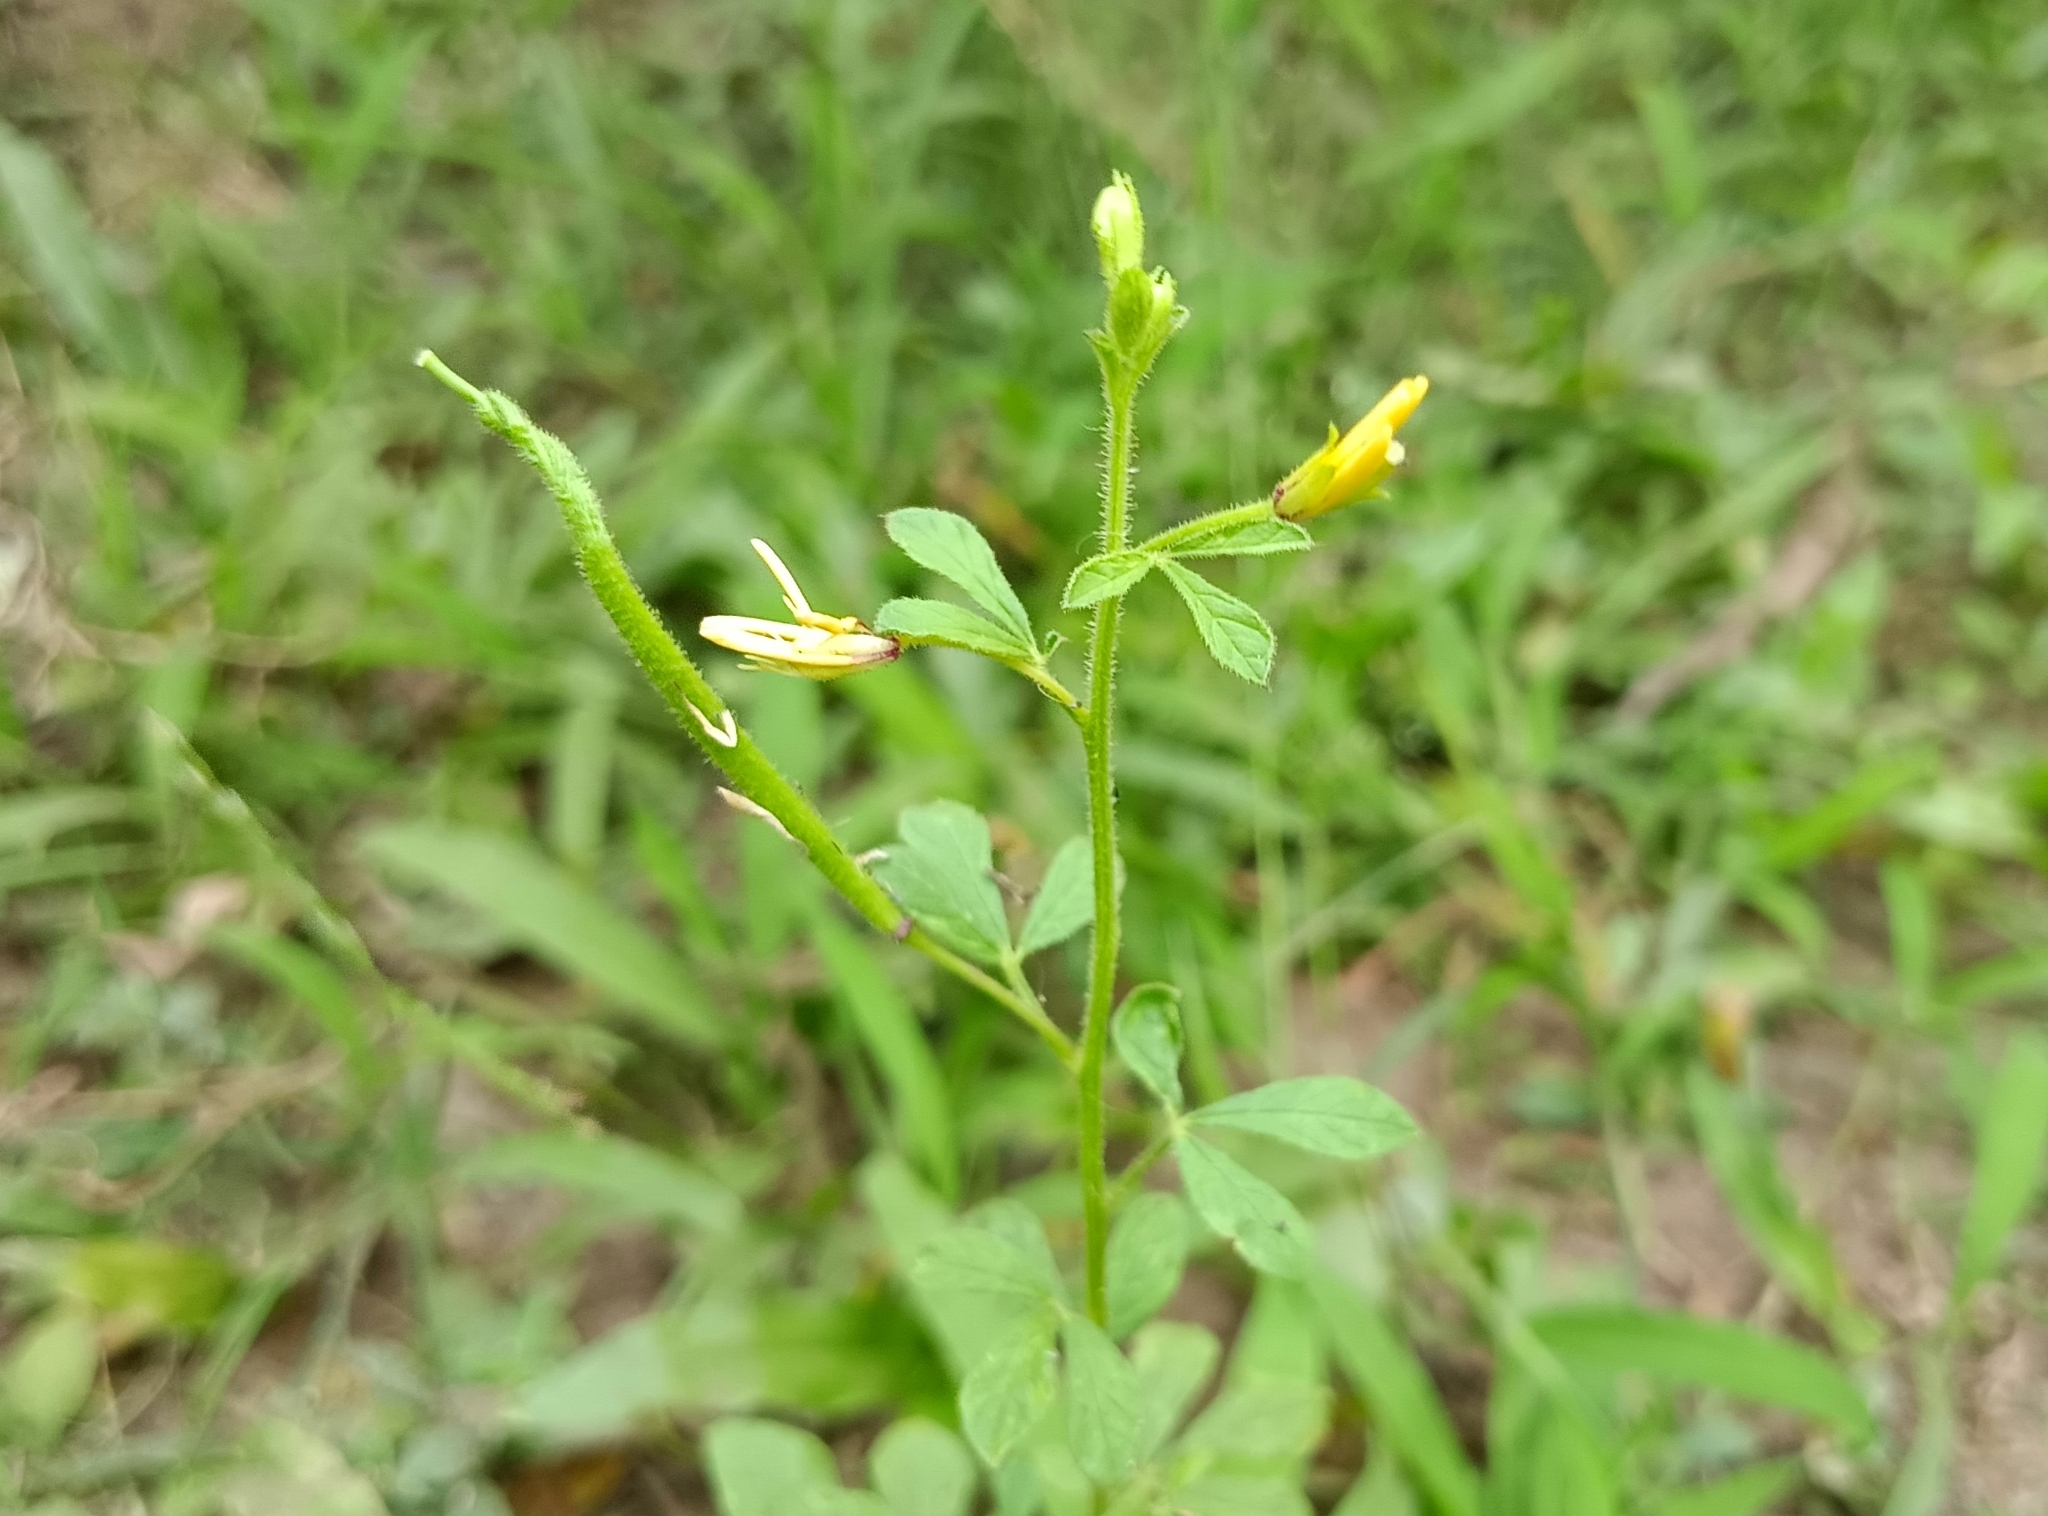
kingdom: Plantae
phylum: Tracheophyta
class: Magnoliopsida
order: Brassicales
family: Cleomaceae
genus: Arivela
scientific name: Arivela viscosa
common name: Asian spiderflower
